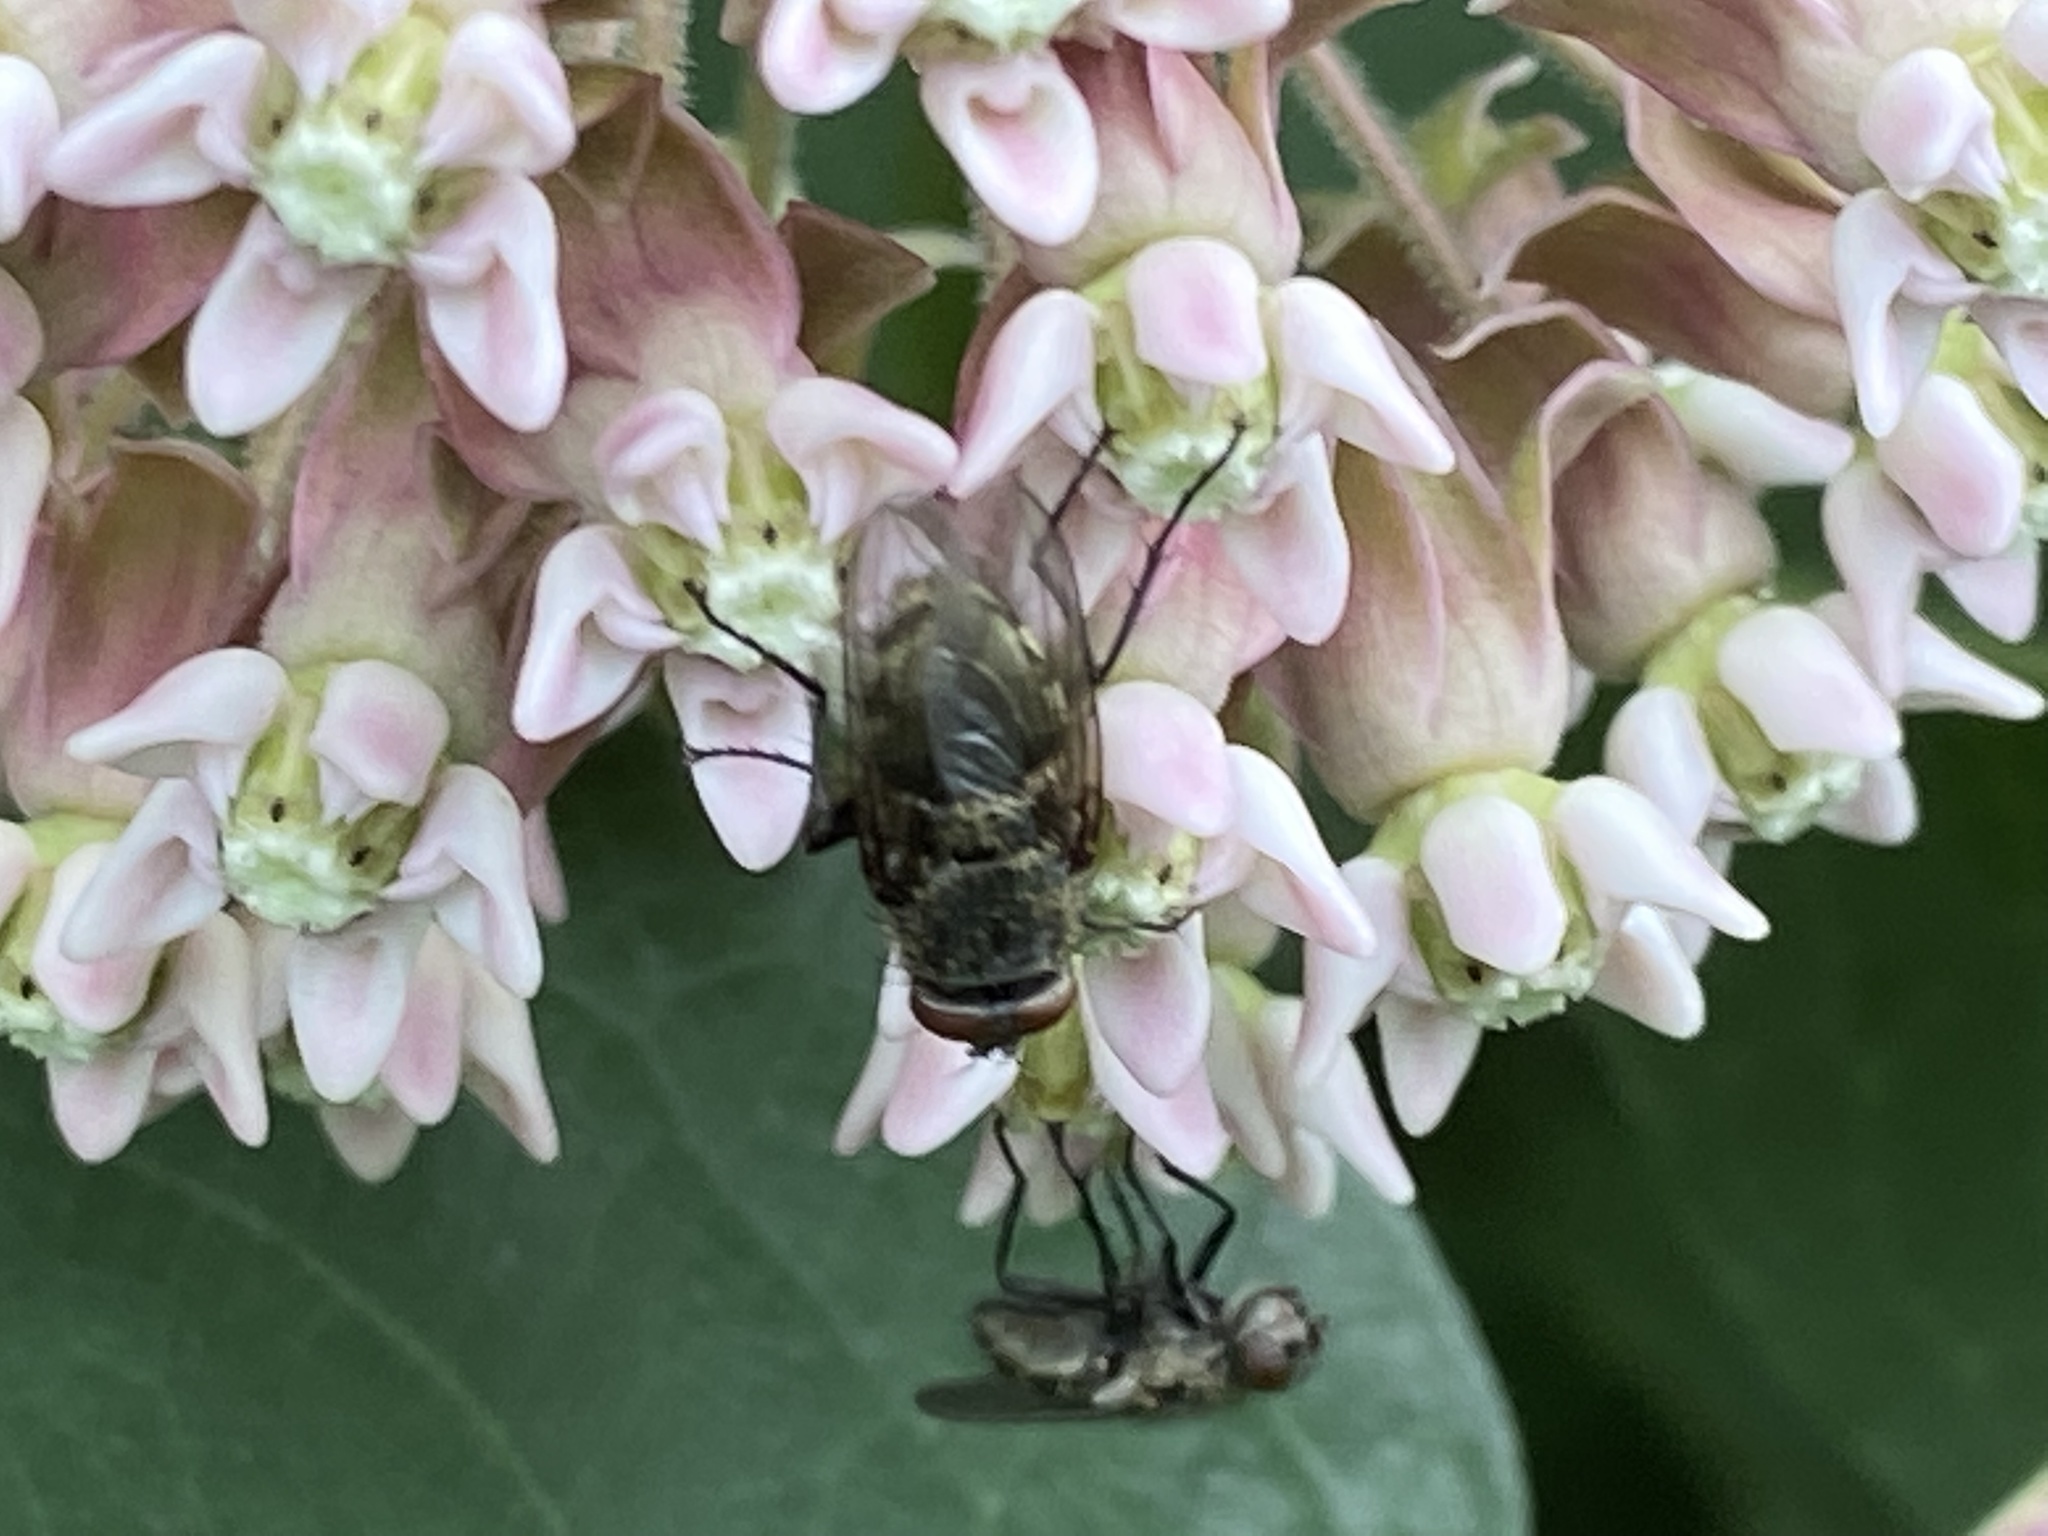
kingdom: Animalia
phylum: Arthropoda
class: Insecta
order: Diptera
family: Polleniidae
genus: Pollenia
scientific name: Pollenia
